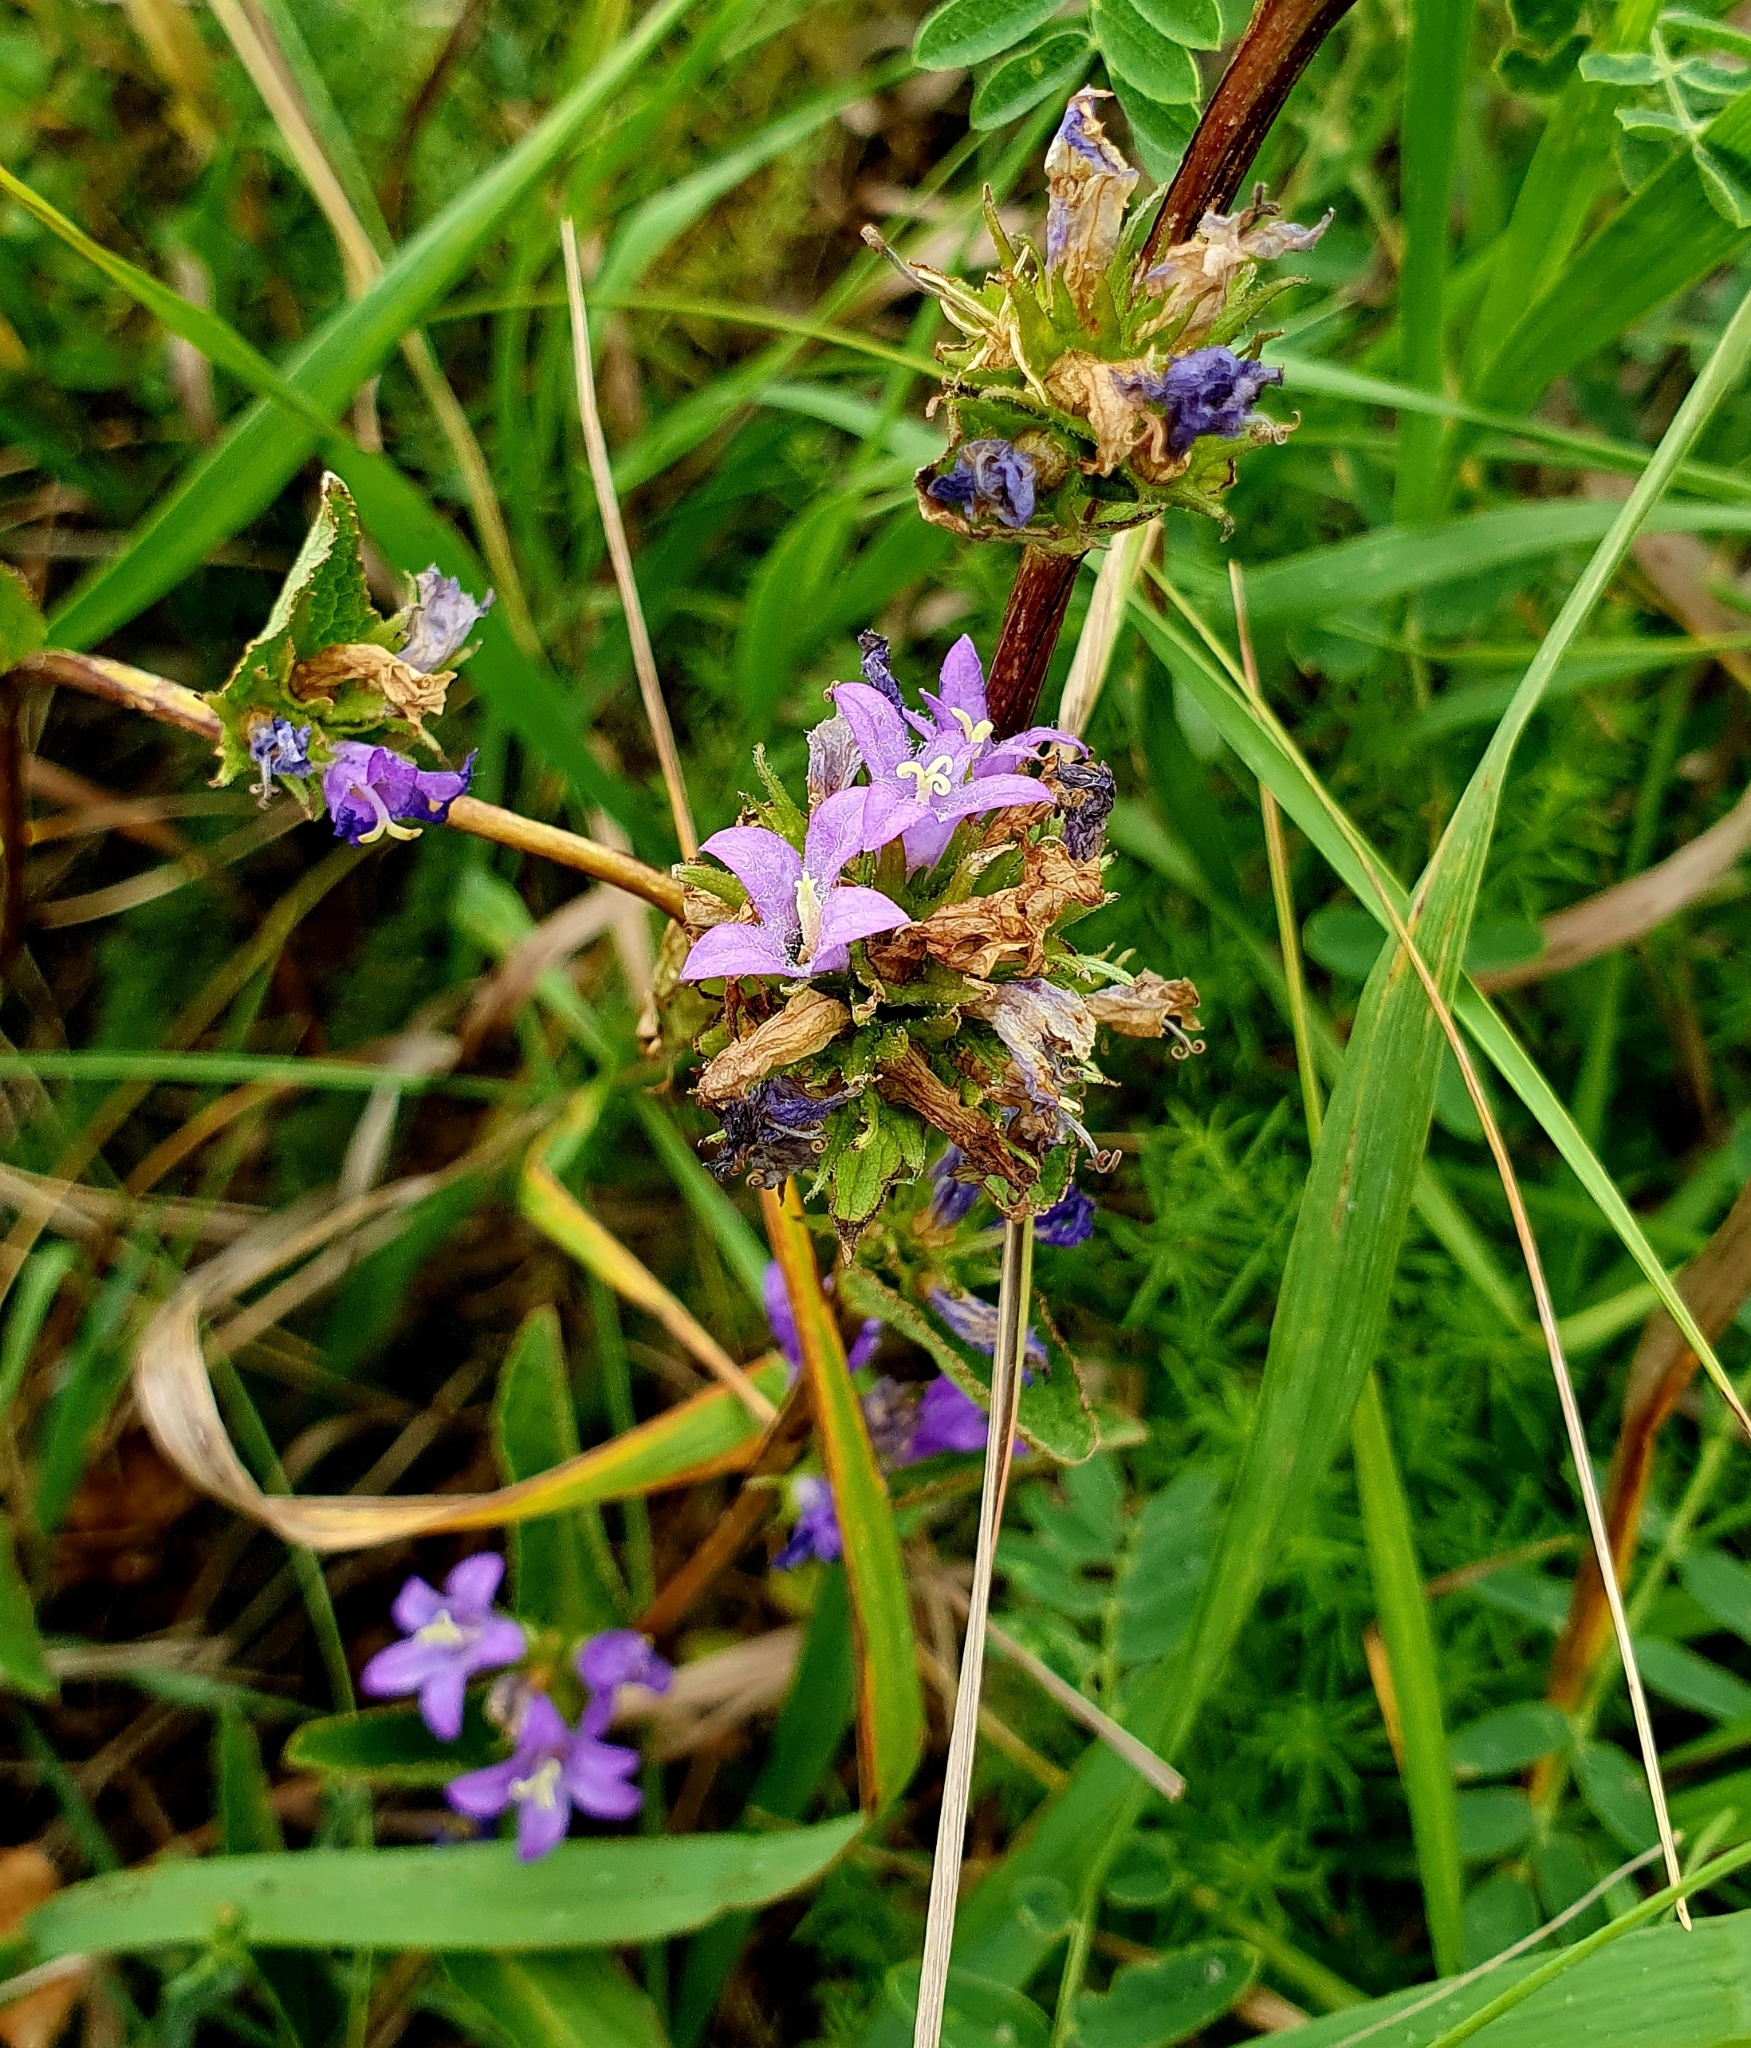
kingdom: Plantae
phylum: Tracheophyta
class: Magnoliopsida
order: Asterales
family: Campanulaceae
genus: Campanula
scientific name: Campanula glomerata
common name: Clustered bellflower
